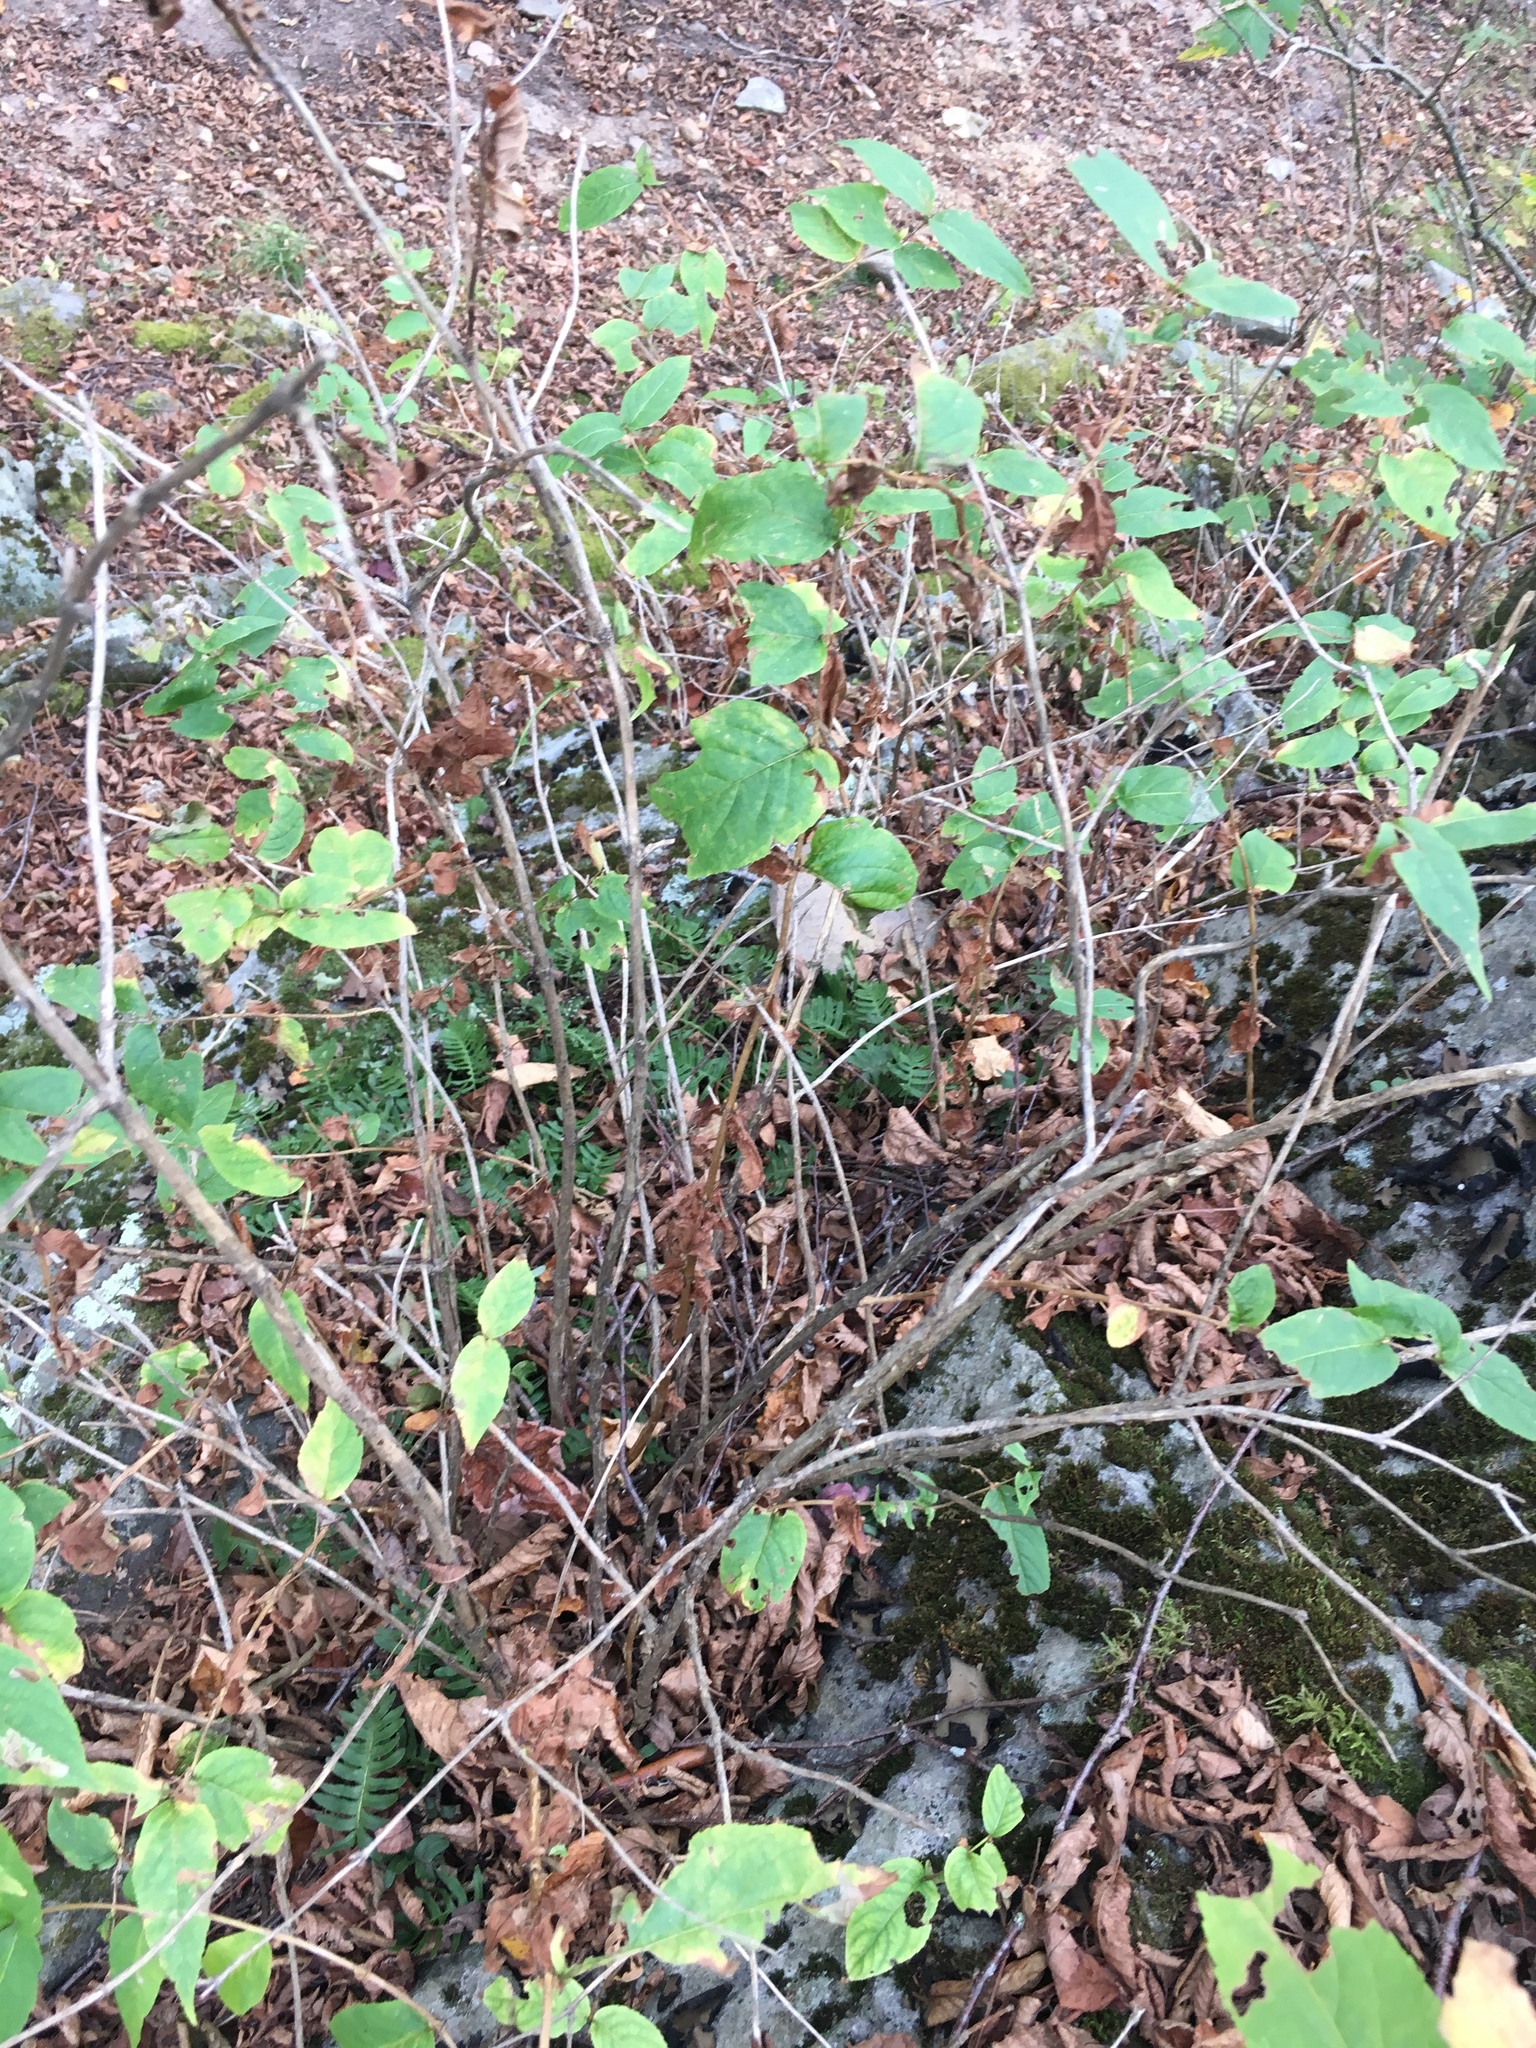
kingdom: Plantae
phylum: Tracheophyta
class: Magnoliopsida
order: Dipsacales
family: Caprifoliaceae
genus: Diervilla
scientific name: Diervilla sessilifolia
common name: Bush-honeysuckle
